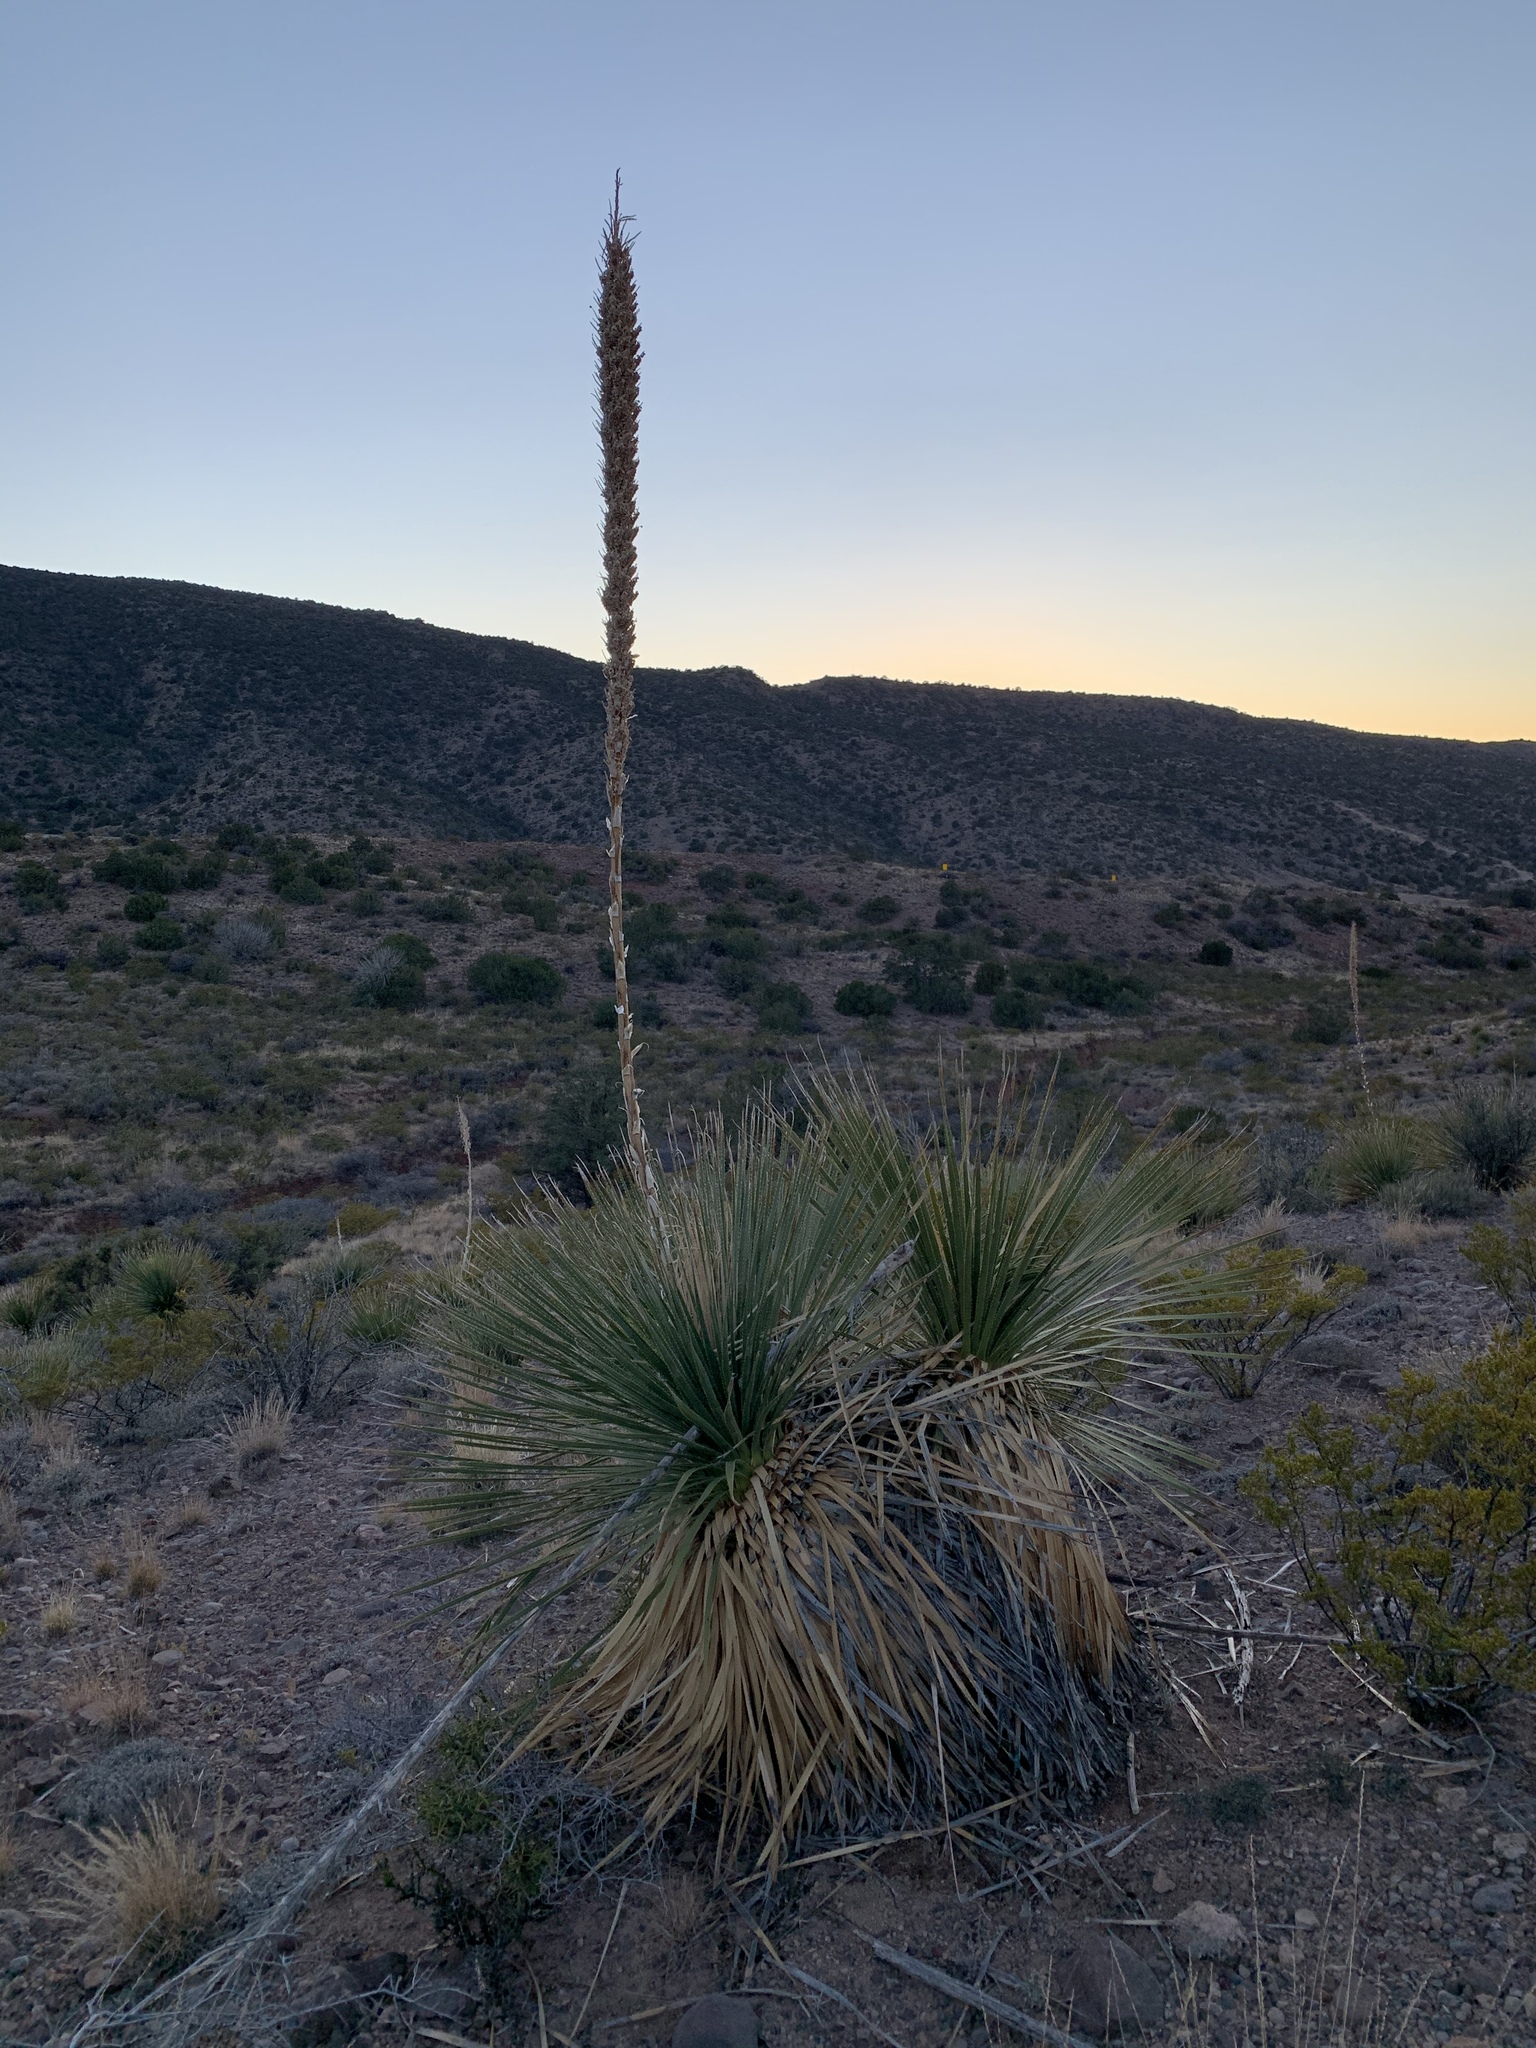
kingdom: Plantae
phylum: Tracheophyta
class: Liliopsida
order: Asparagales
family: Asparagaceae
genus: Dasylirion
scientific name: Dasylirion wheeleri
